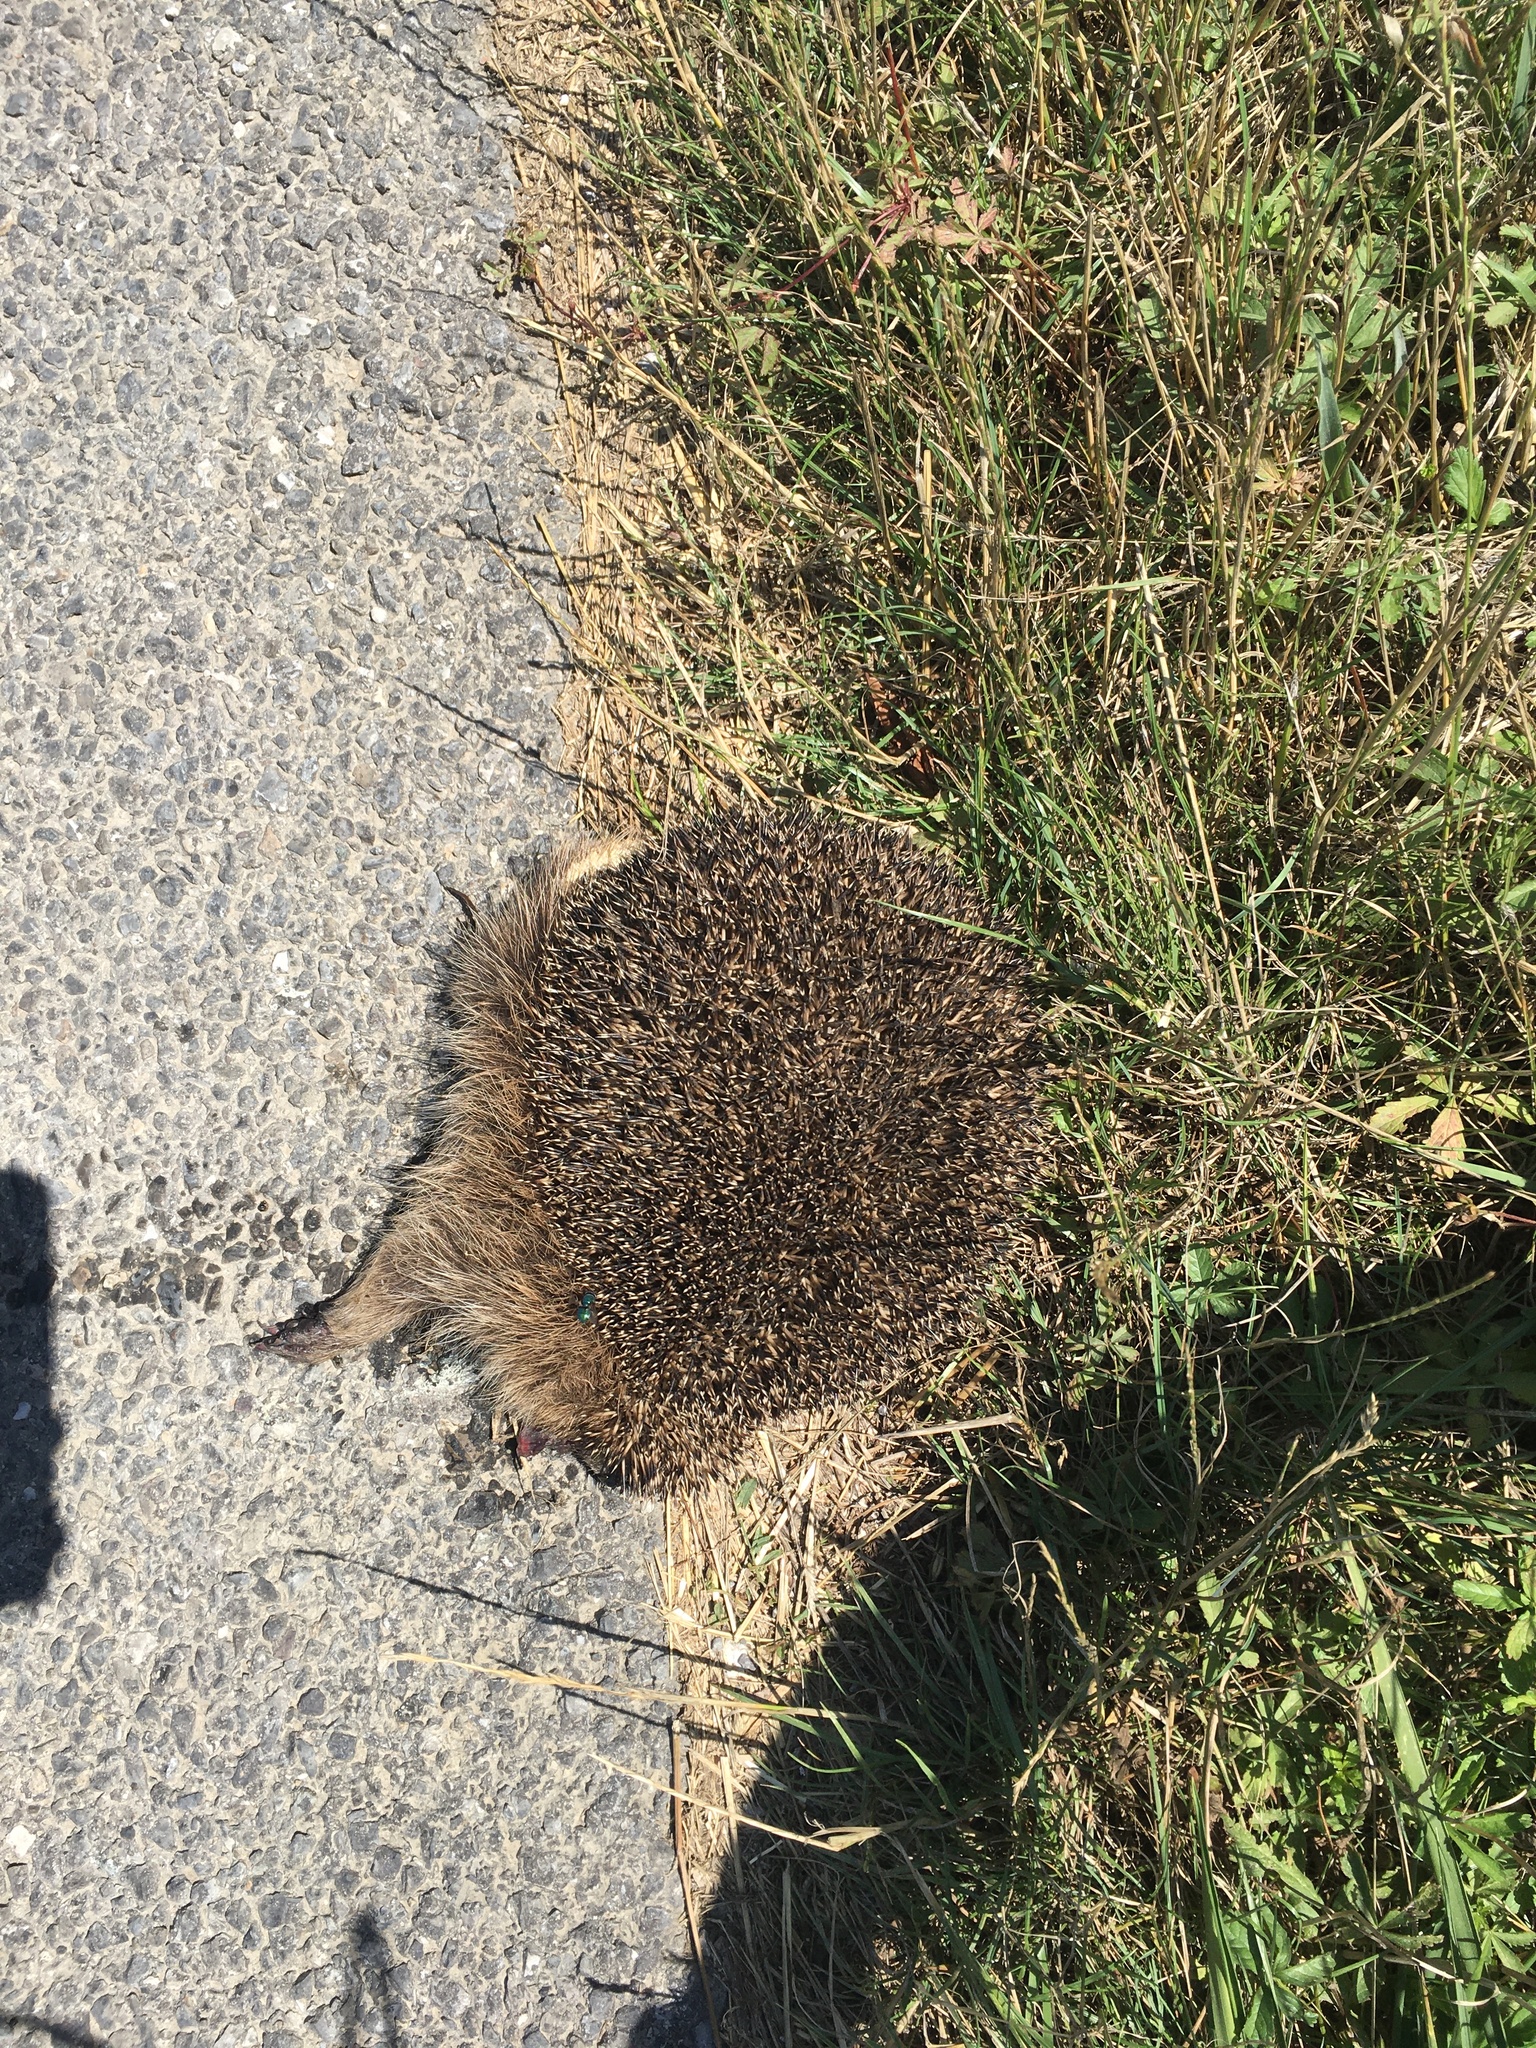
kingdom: Animalia
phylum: Chordata
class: Mammalia
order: Erinaceomorpha
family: Erinaceidae
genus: Erinaceus
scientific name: Erinaceus europaeus
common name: West european hedgehog
